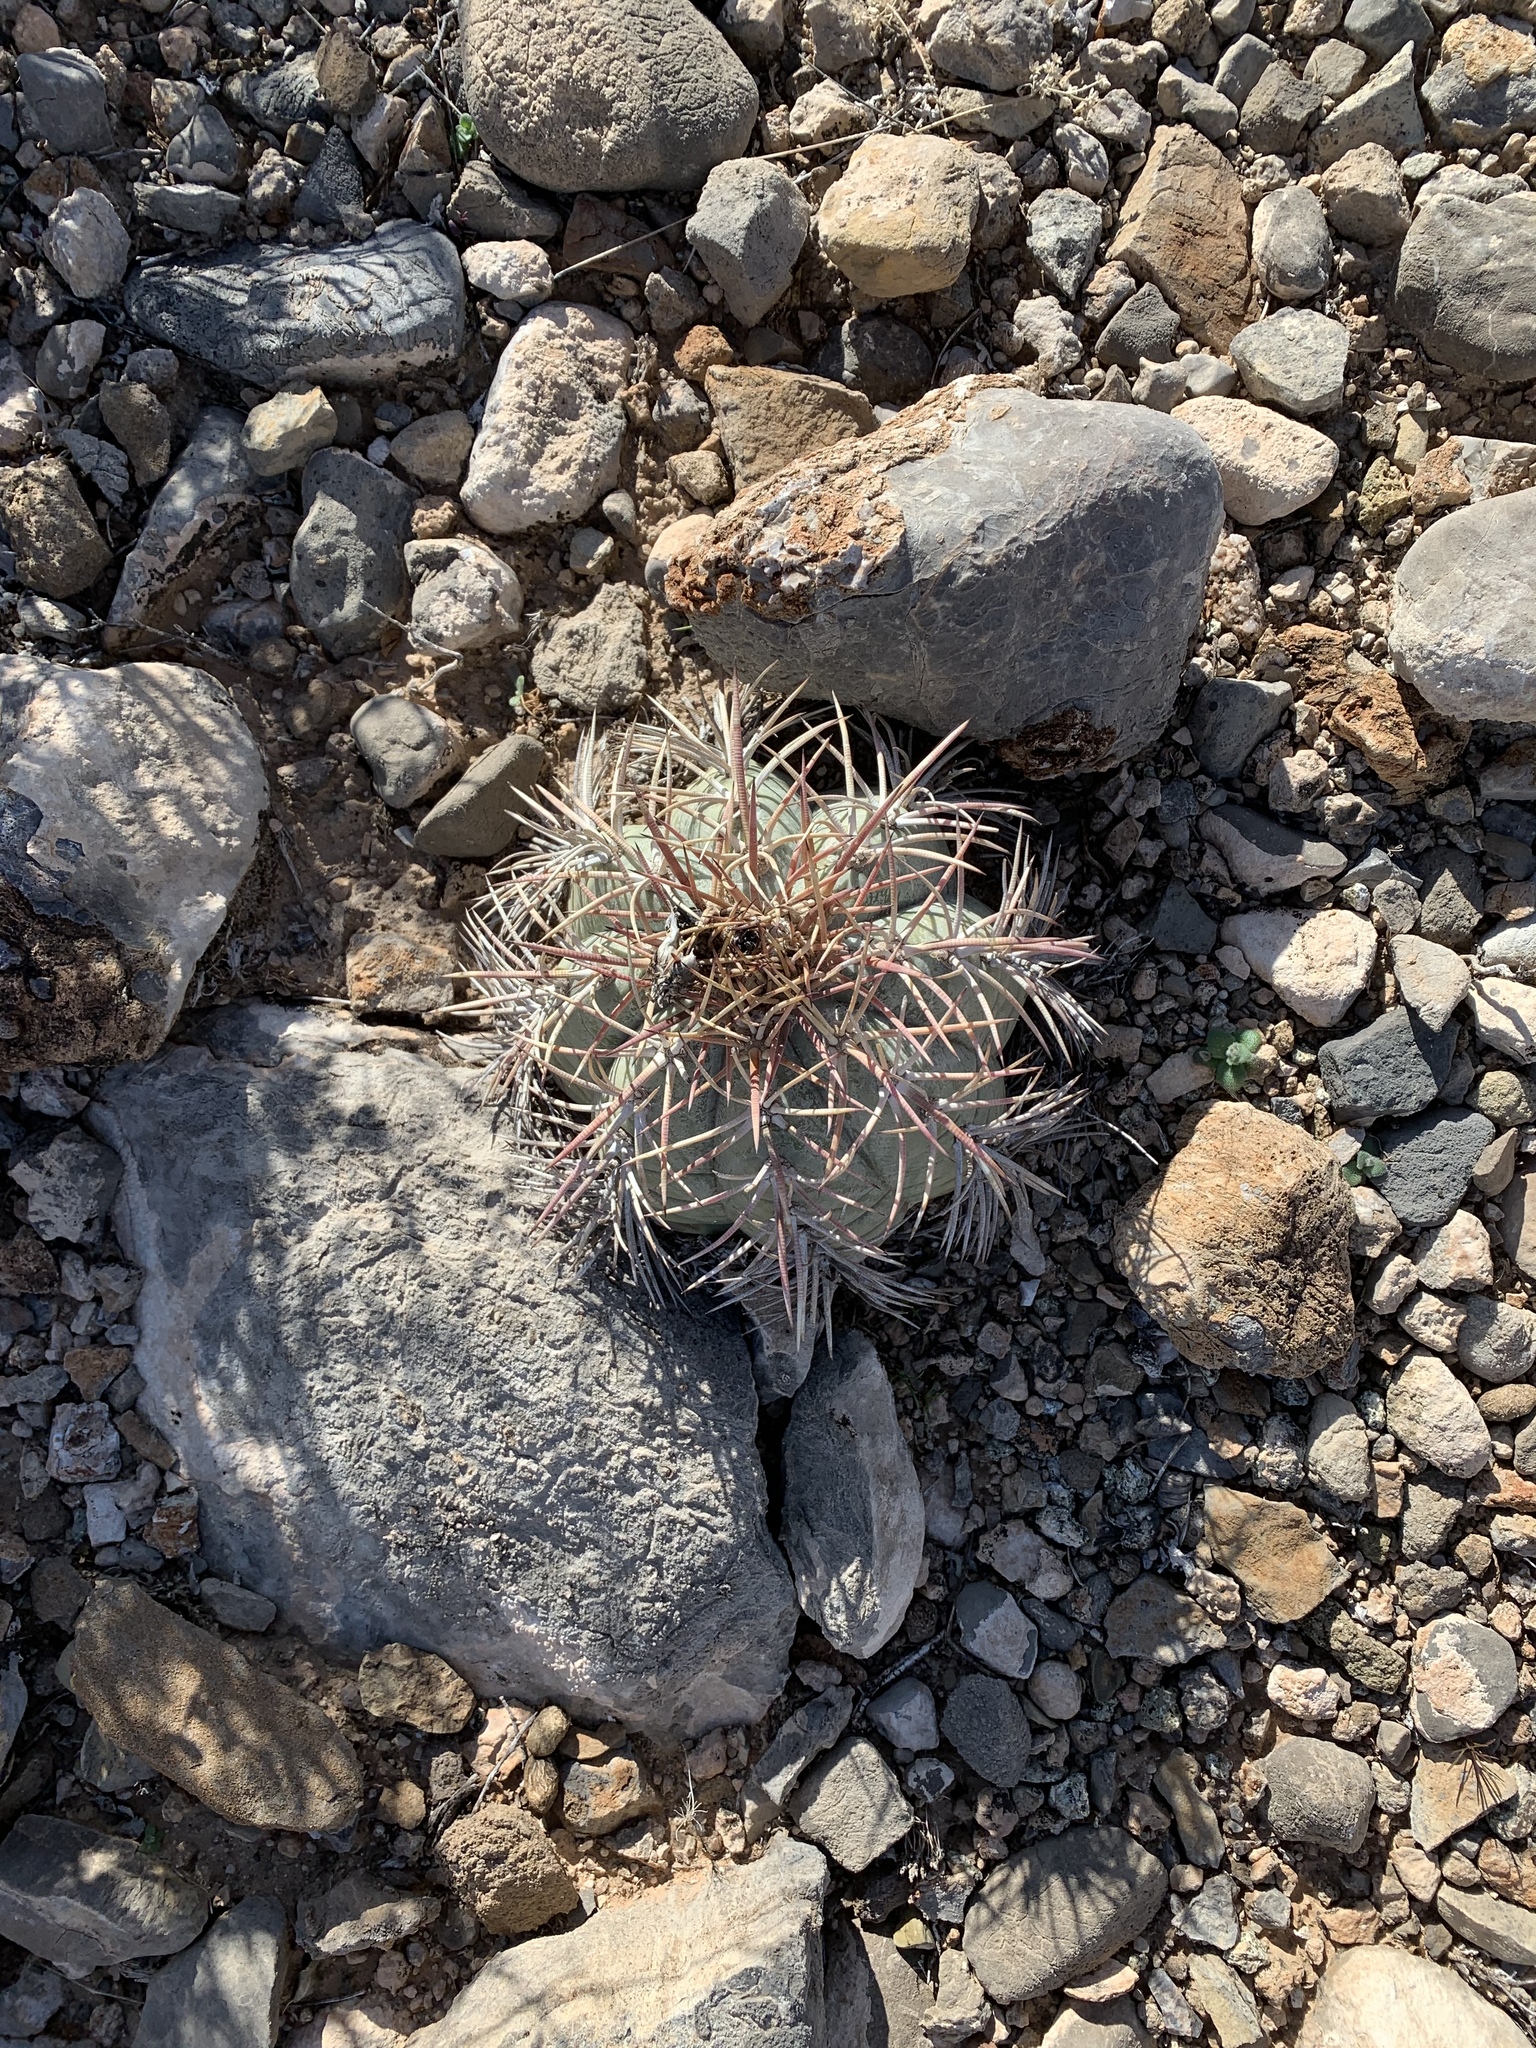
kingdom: Plantae
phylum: Tracheophyta
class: Magnoliopsida
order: Caryophyllales
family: Cactaceae
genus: Echinocactus
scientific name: Echinocactus horizonthalonius
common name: Devilshead
